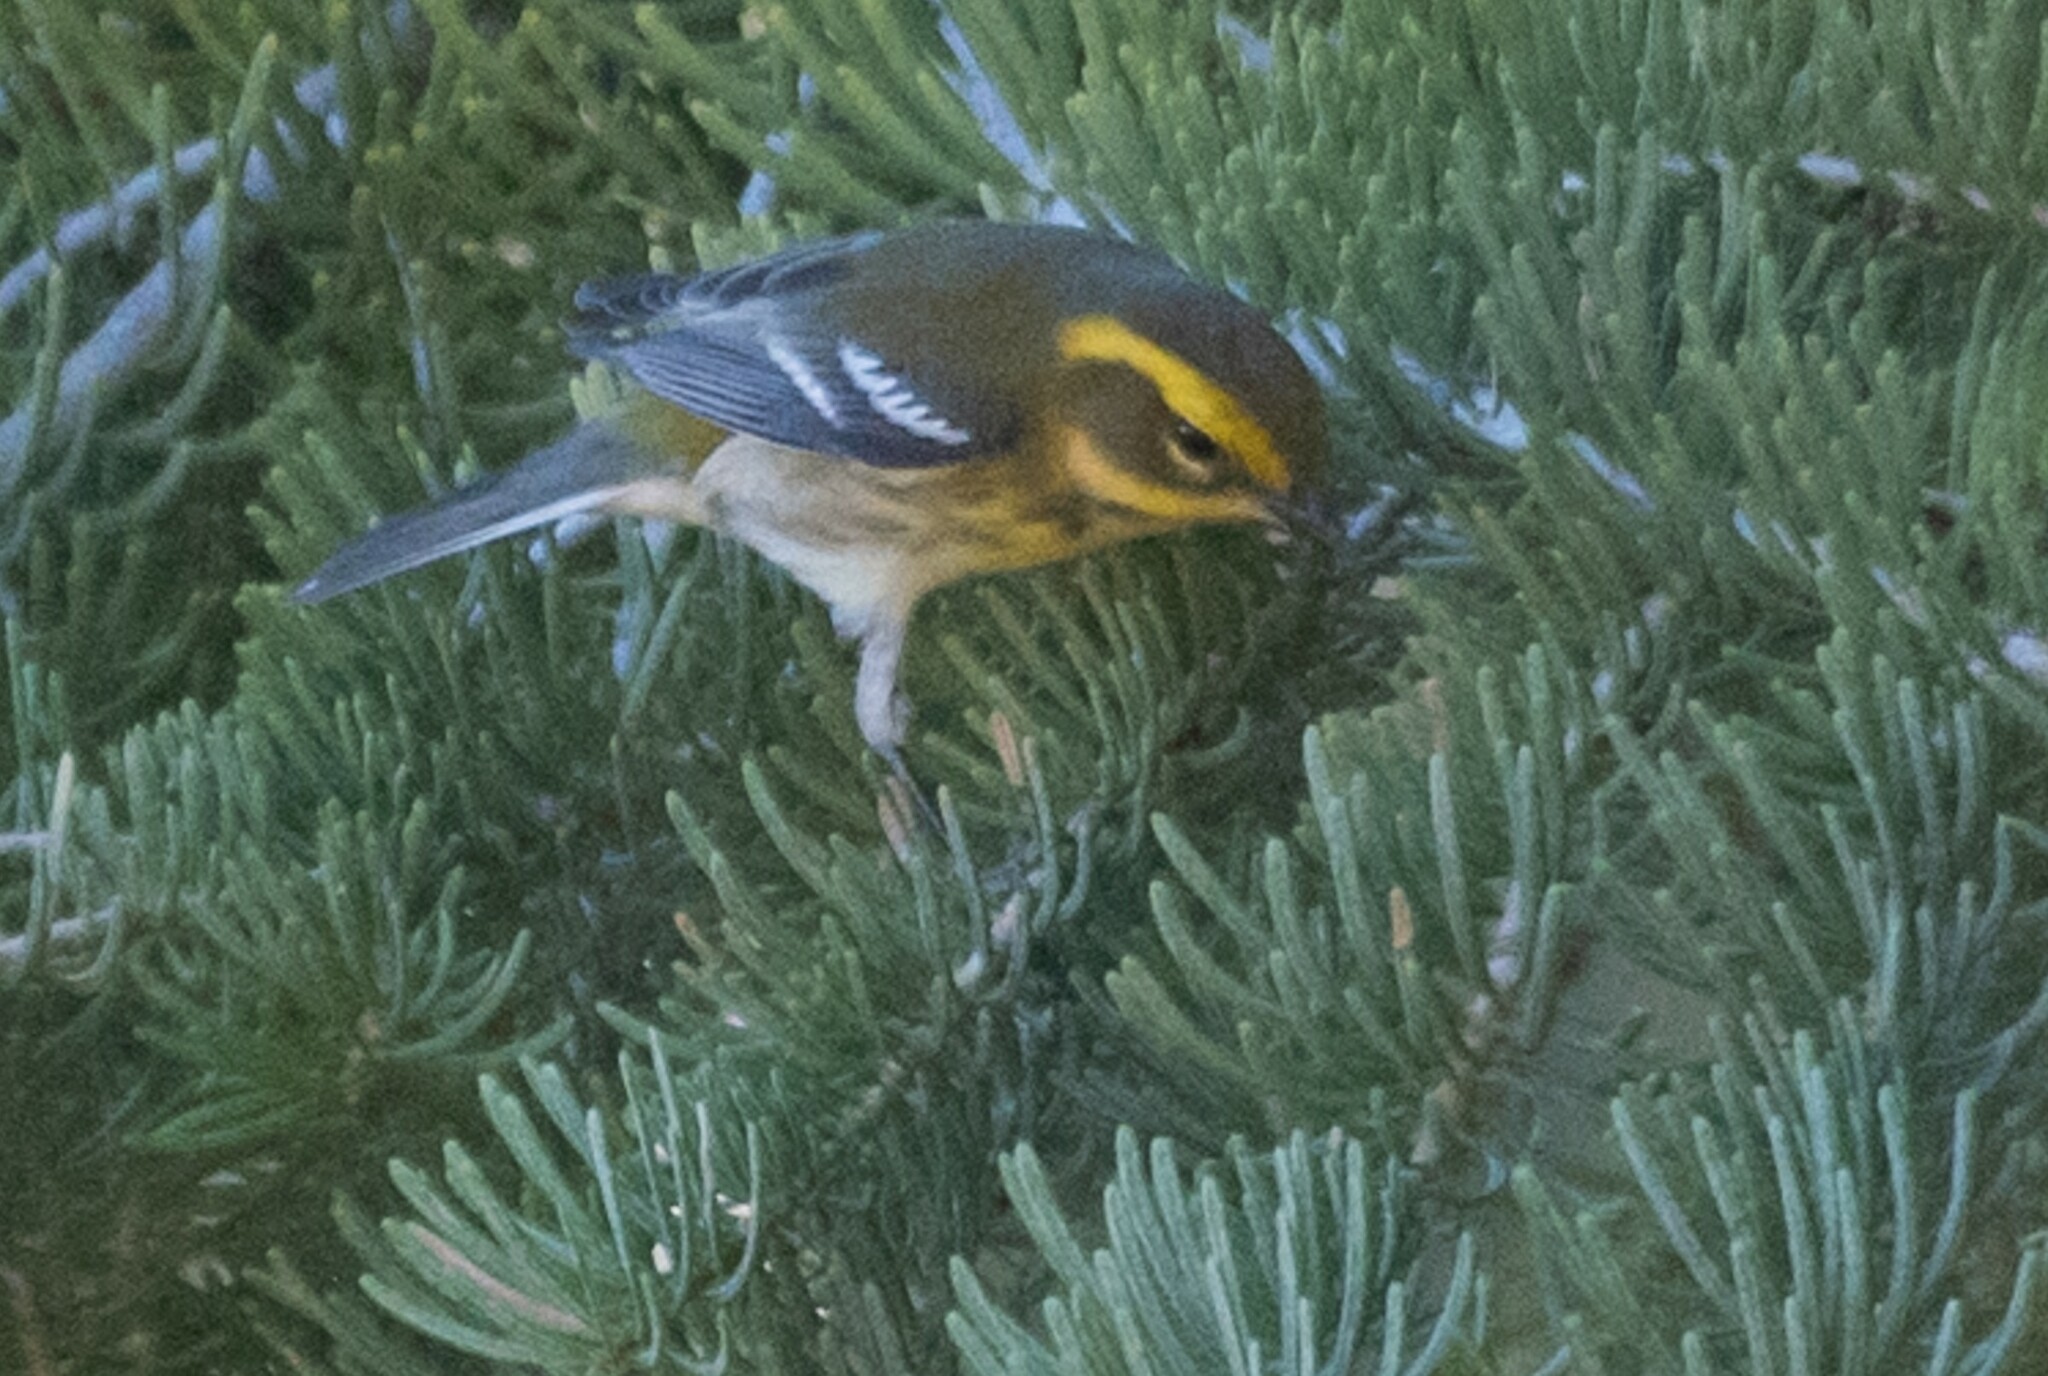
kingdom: Animalia
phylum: Chordata
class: Aves
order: Passeriformes
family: Parulidae
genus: Setophaga
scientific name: Setophaga townsendi
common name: Townsend's warbler
